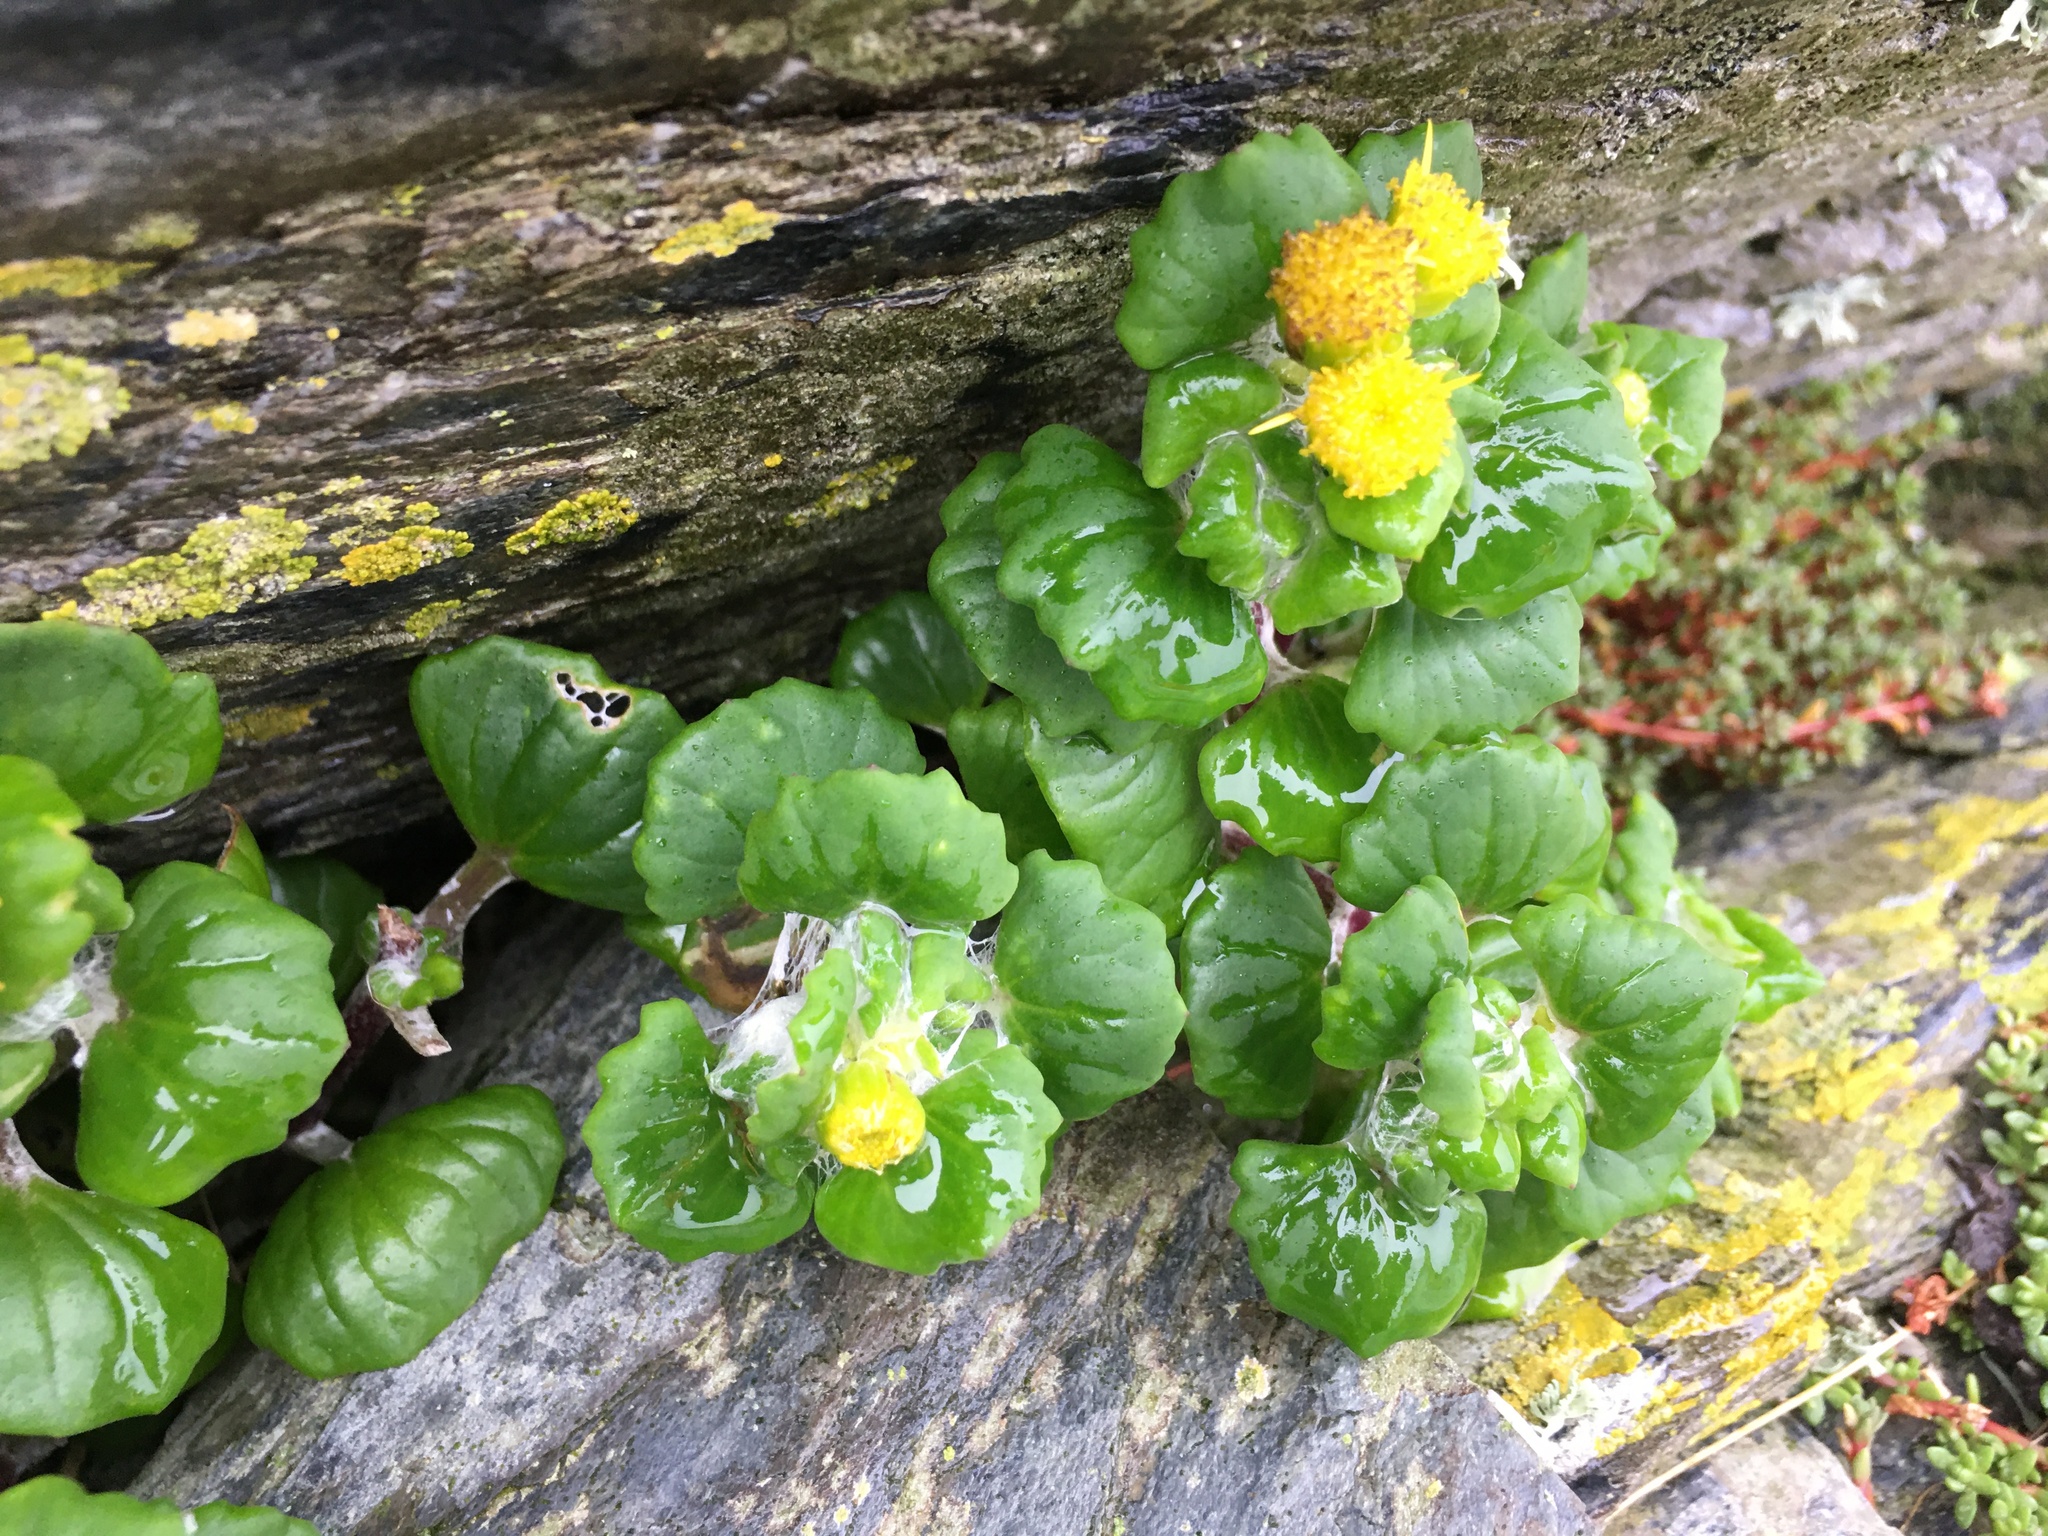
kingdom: Plantae
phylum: Tracheophyta
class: Magnoliopsida
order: Asterales
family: Asteraceae
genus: Senecio
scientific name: Senecio websteri
